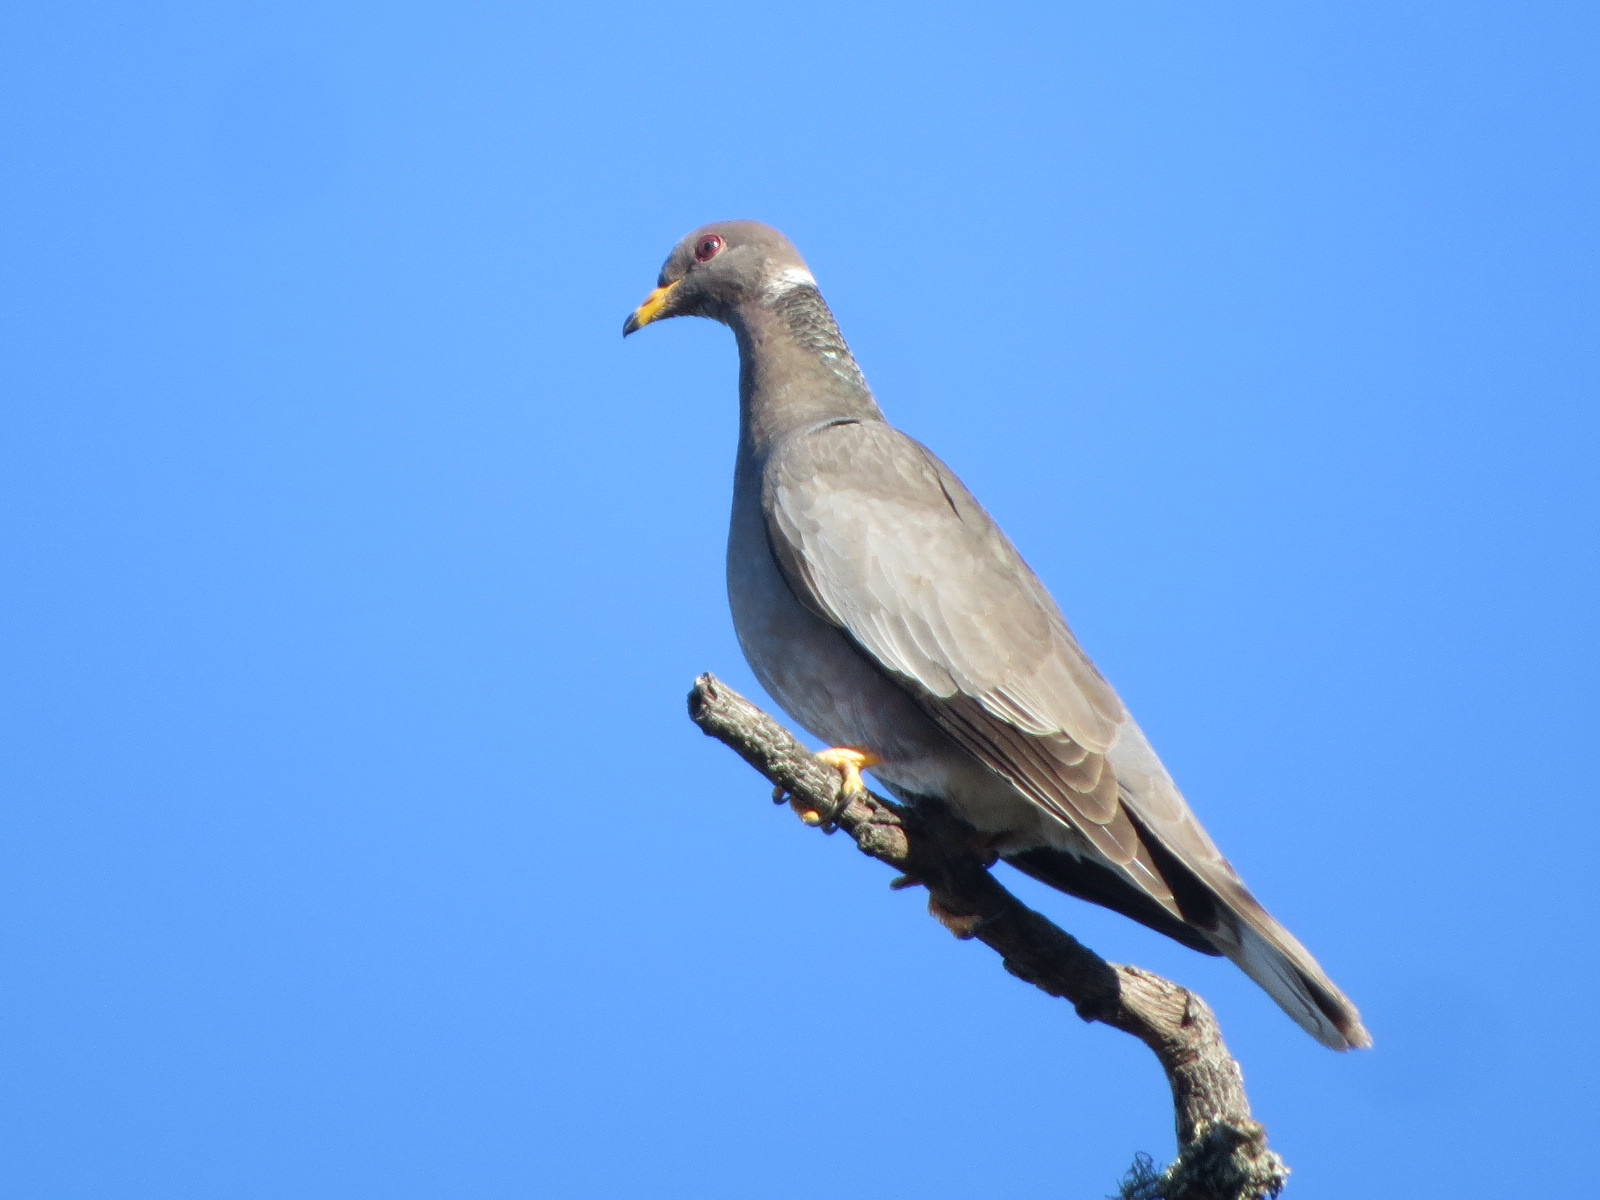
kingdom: Animalia
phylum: Chordata
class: Aves
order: Columbiformes
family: Columbidae
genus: Patagioenas
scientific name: Patagioenas fasciata
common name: Band-tailed pigeon
